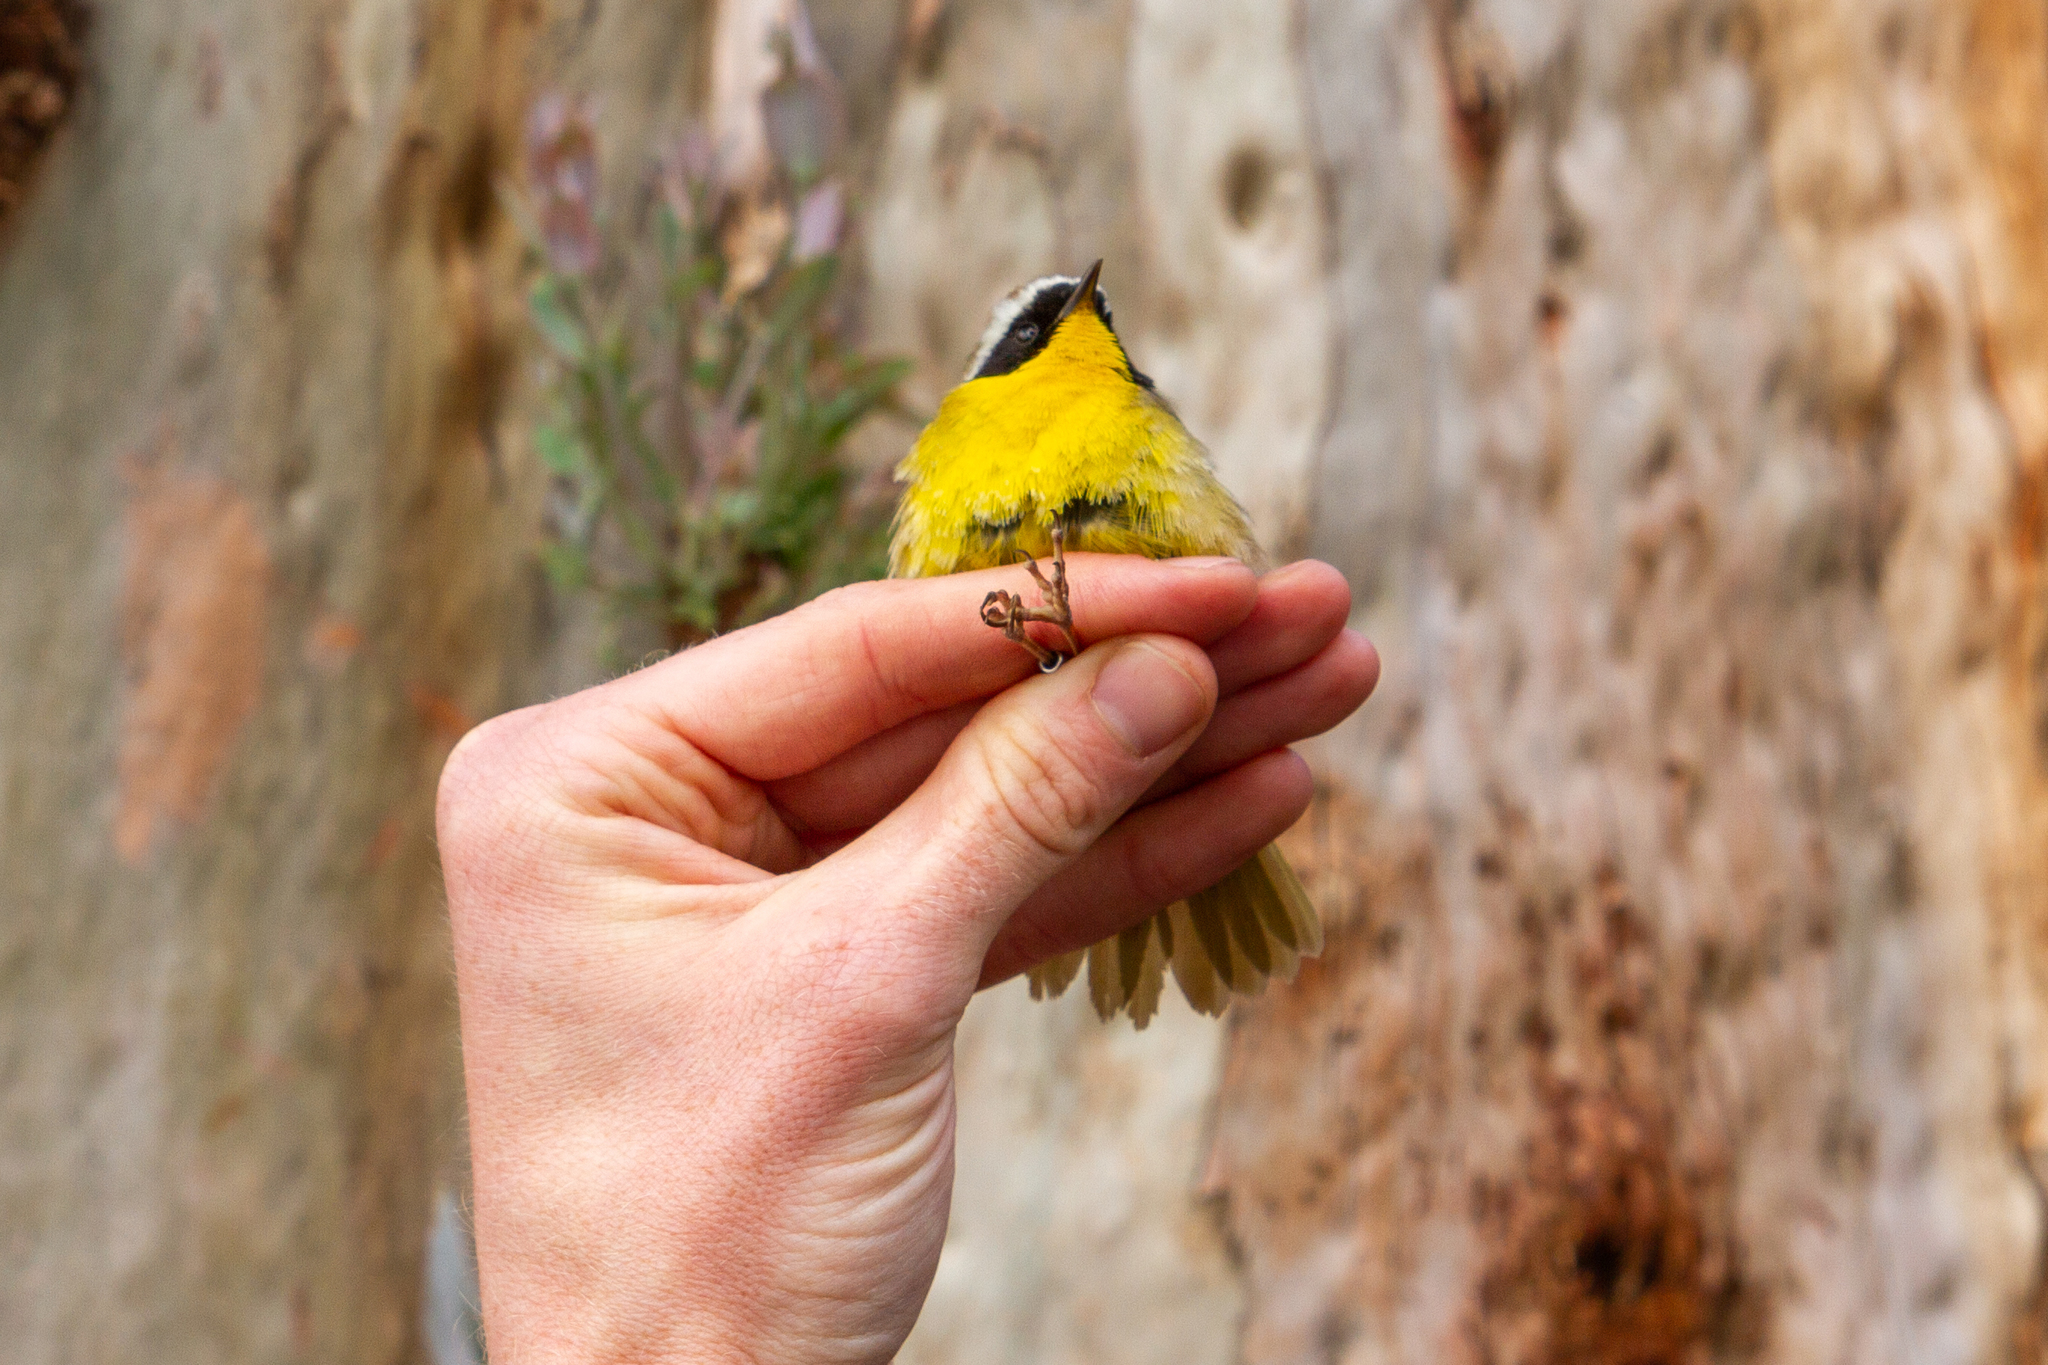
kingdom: Animalia
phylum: Chordata
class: Aves
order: Passeriformes
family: Parulidae
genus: Geothlypis
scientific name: Geothlypis trichas
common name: Common yellowthroat
